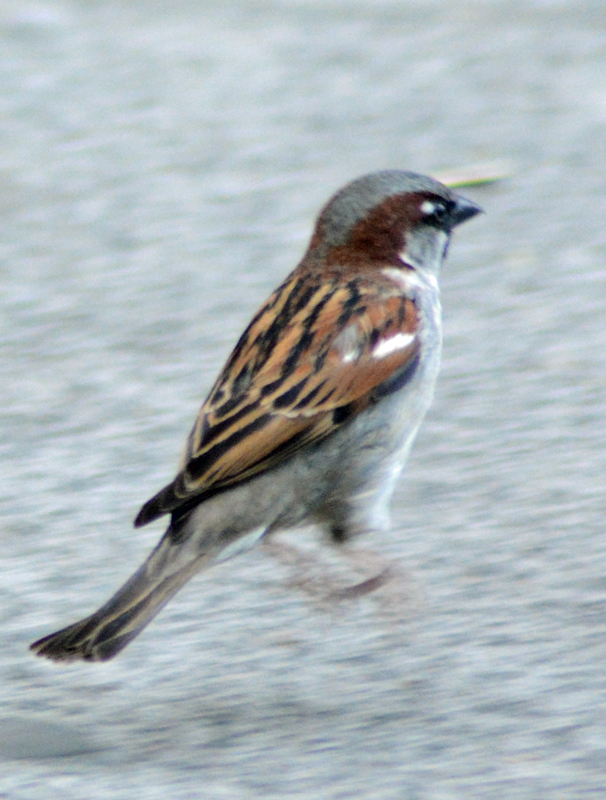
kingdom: Animalia
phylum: Chordata
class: Aves
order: Passeriformes
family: Passeridae
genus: Passer
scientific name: Passer domesticus
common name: House sparrow
